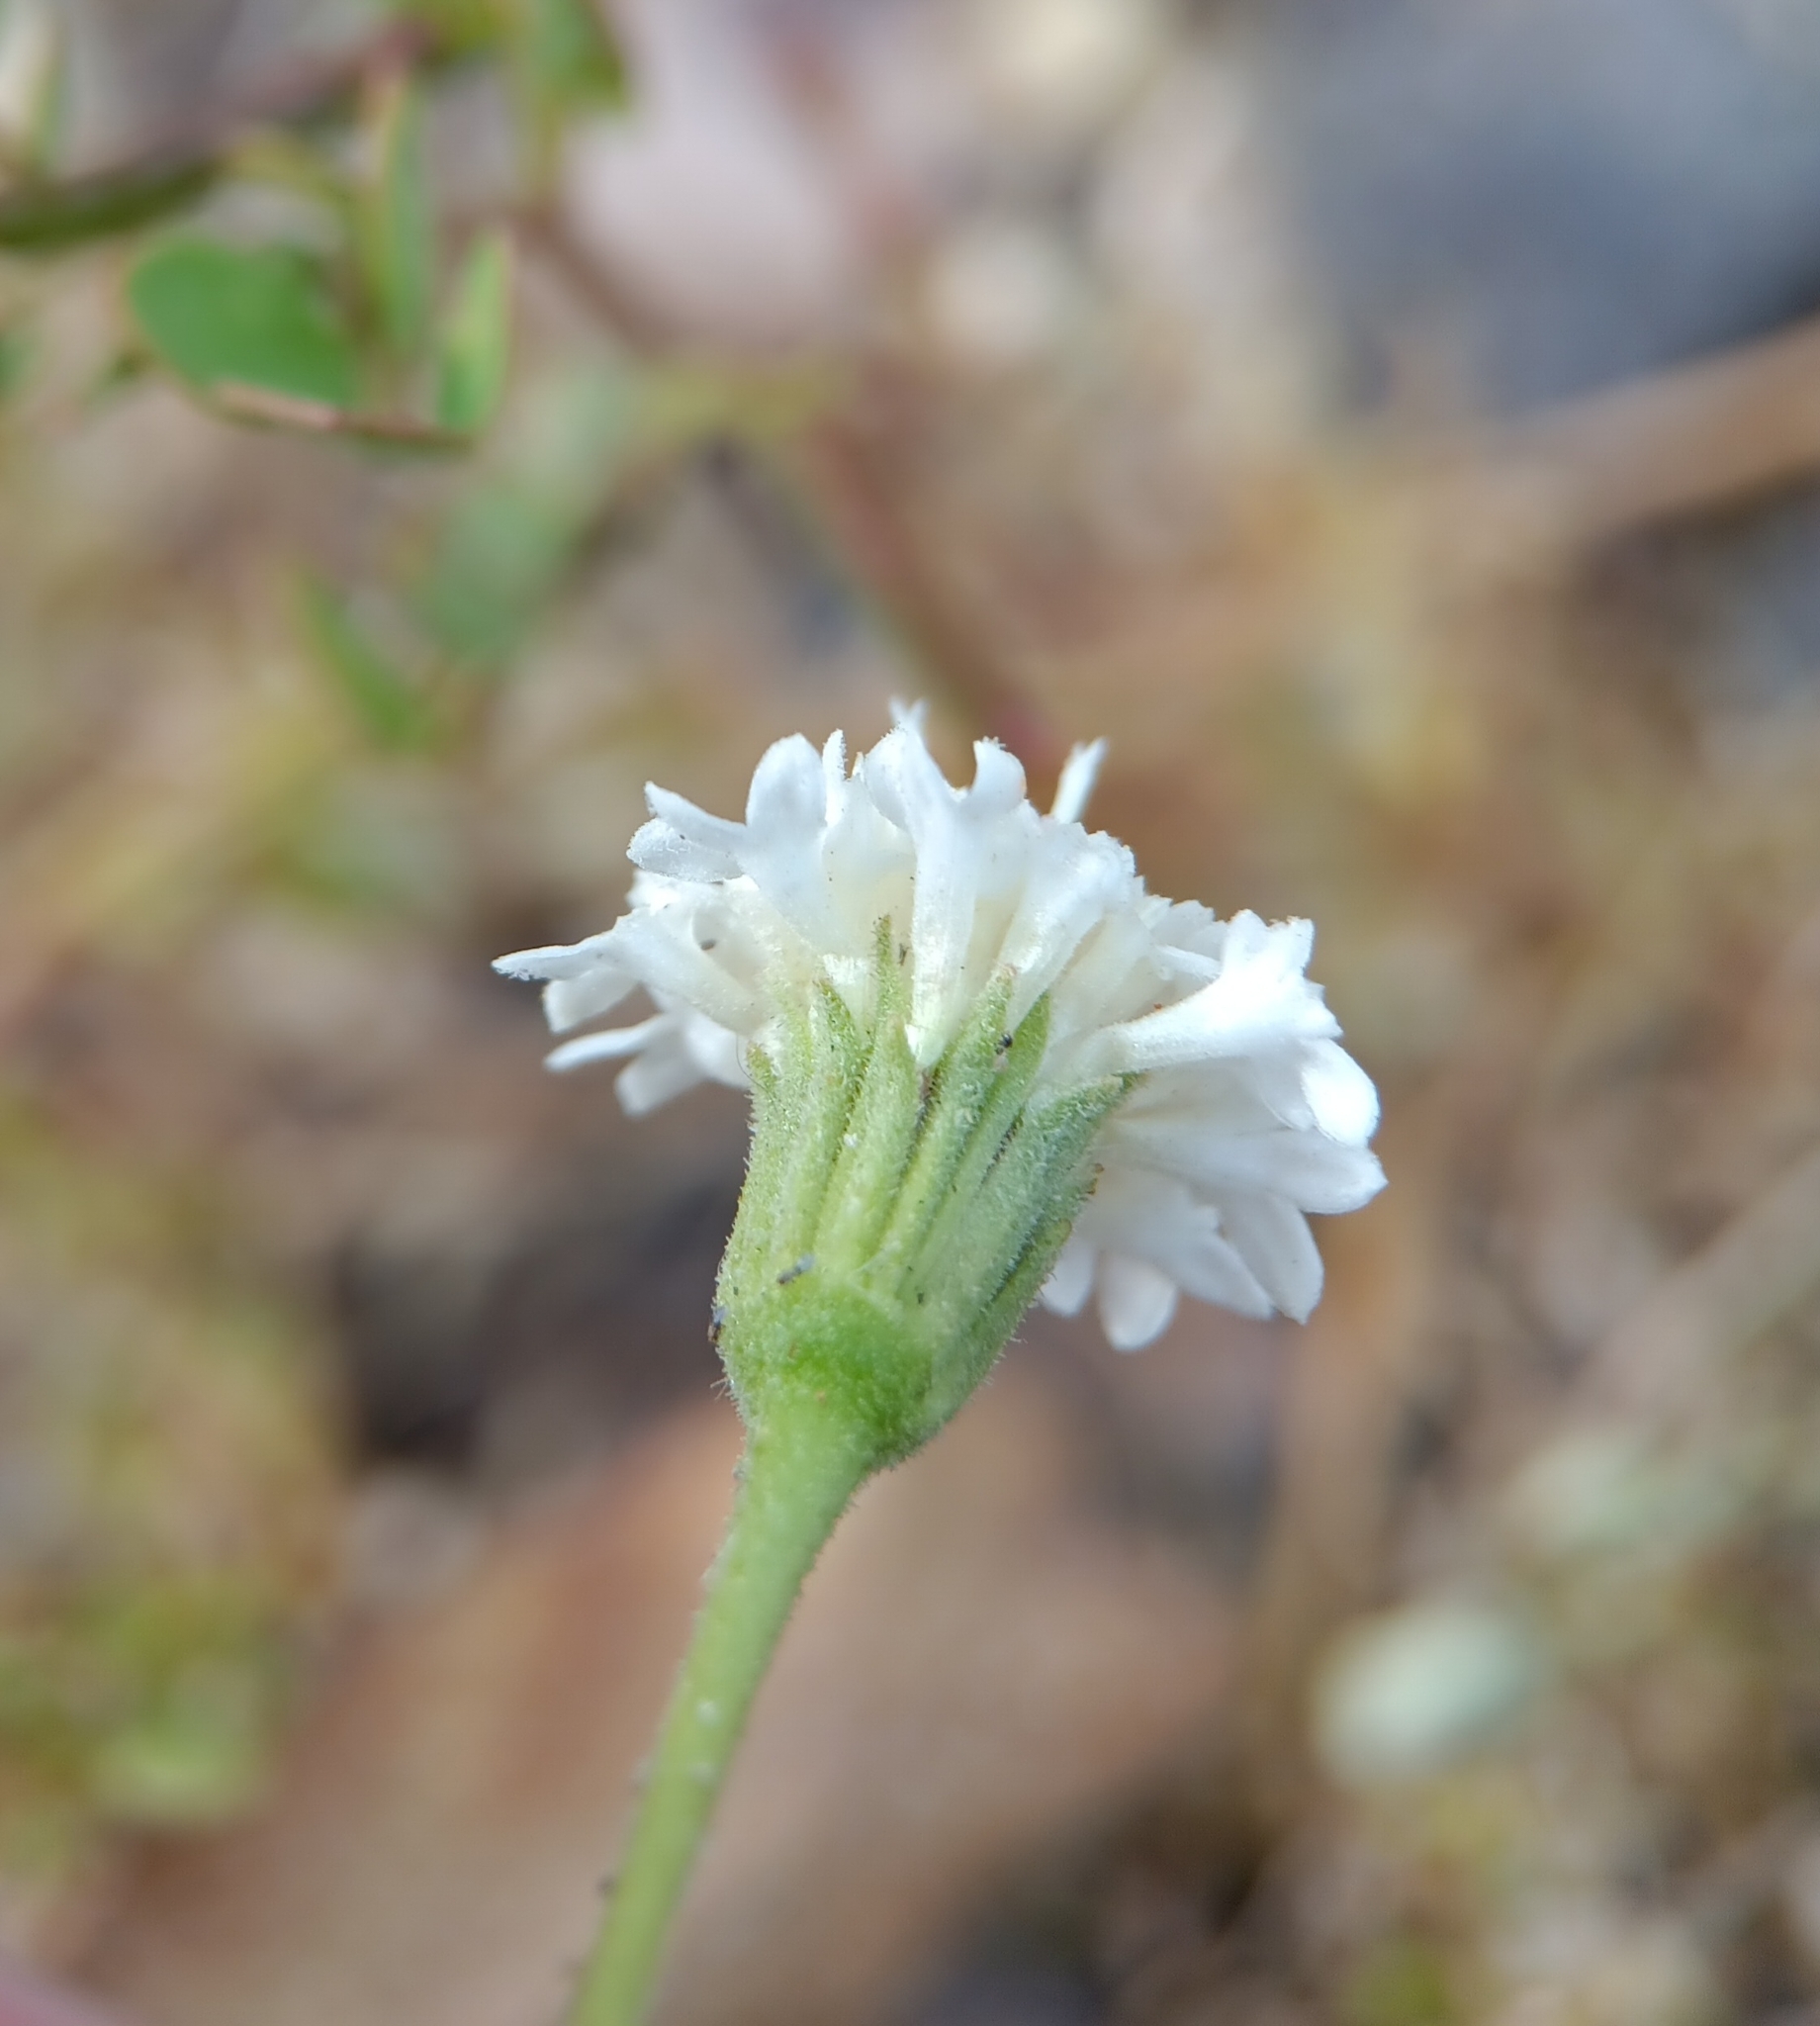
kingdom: Plantae
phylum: Tracheophyta
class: Magnoliopsida
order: Asterales
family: Asteraceae
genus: Chaenactis
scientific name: Chaenactis stevioides
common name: Desert pincushion
